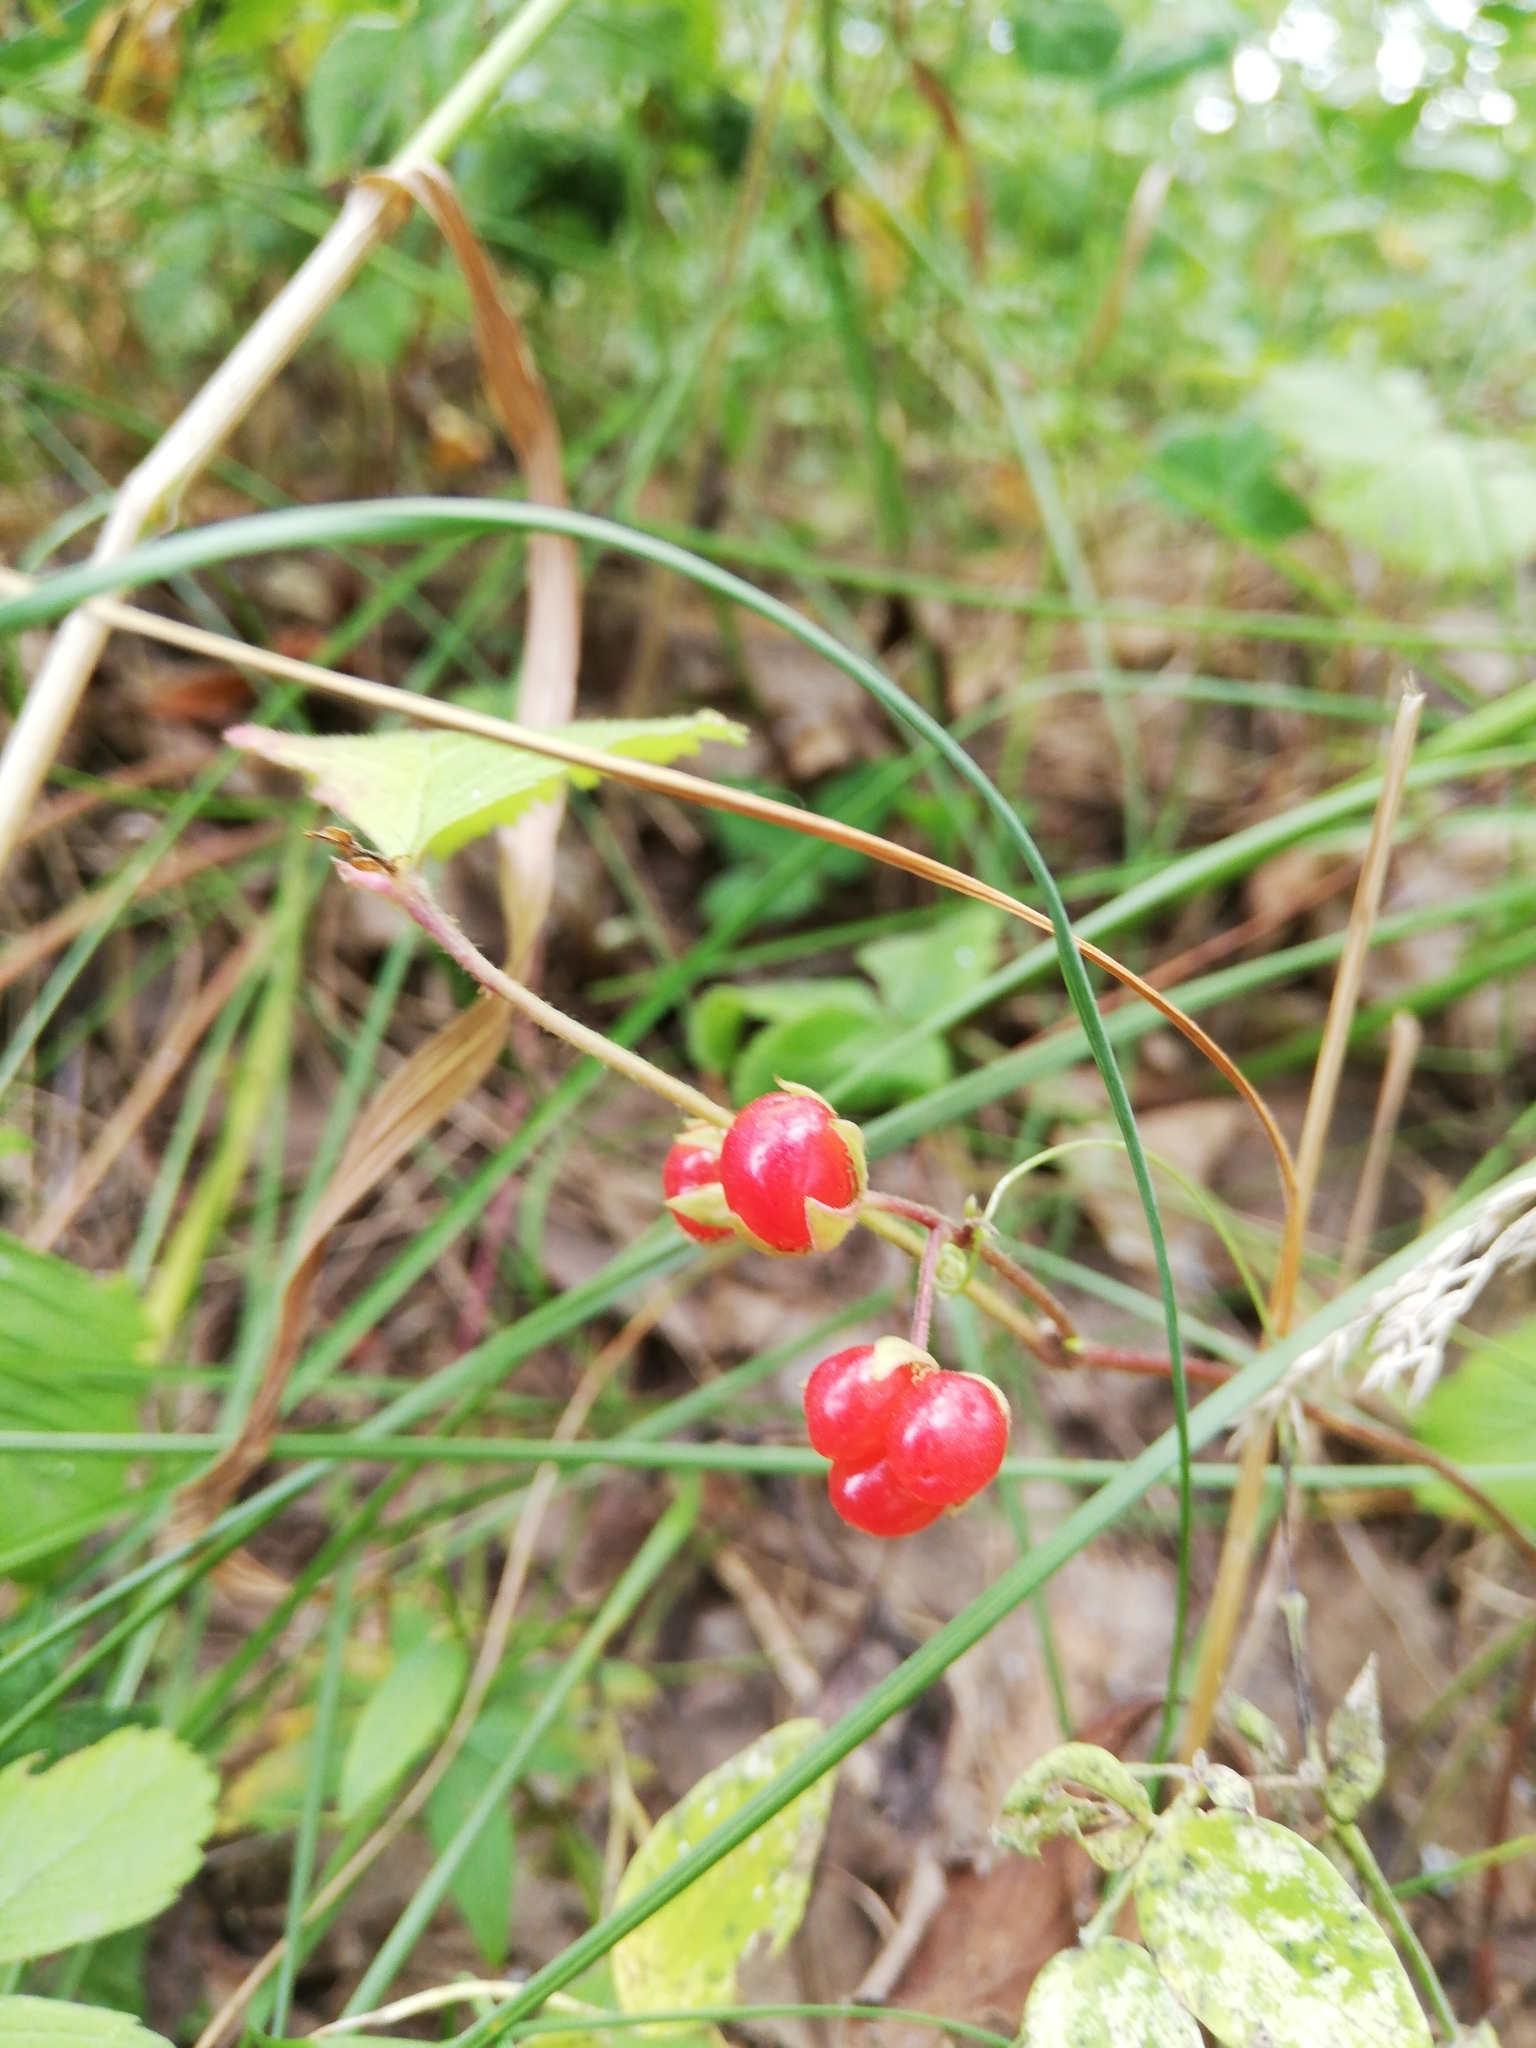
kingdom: Plantae
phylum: Tracheophyta
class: Magnoliopsida
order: Rosales
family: Rosaceae
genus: Rubus
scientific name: Rubus saxatilis
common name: Stone bramble
